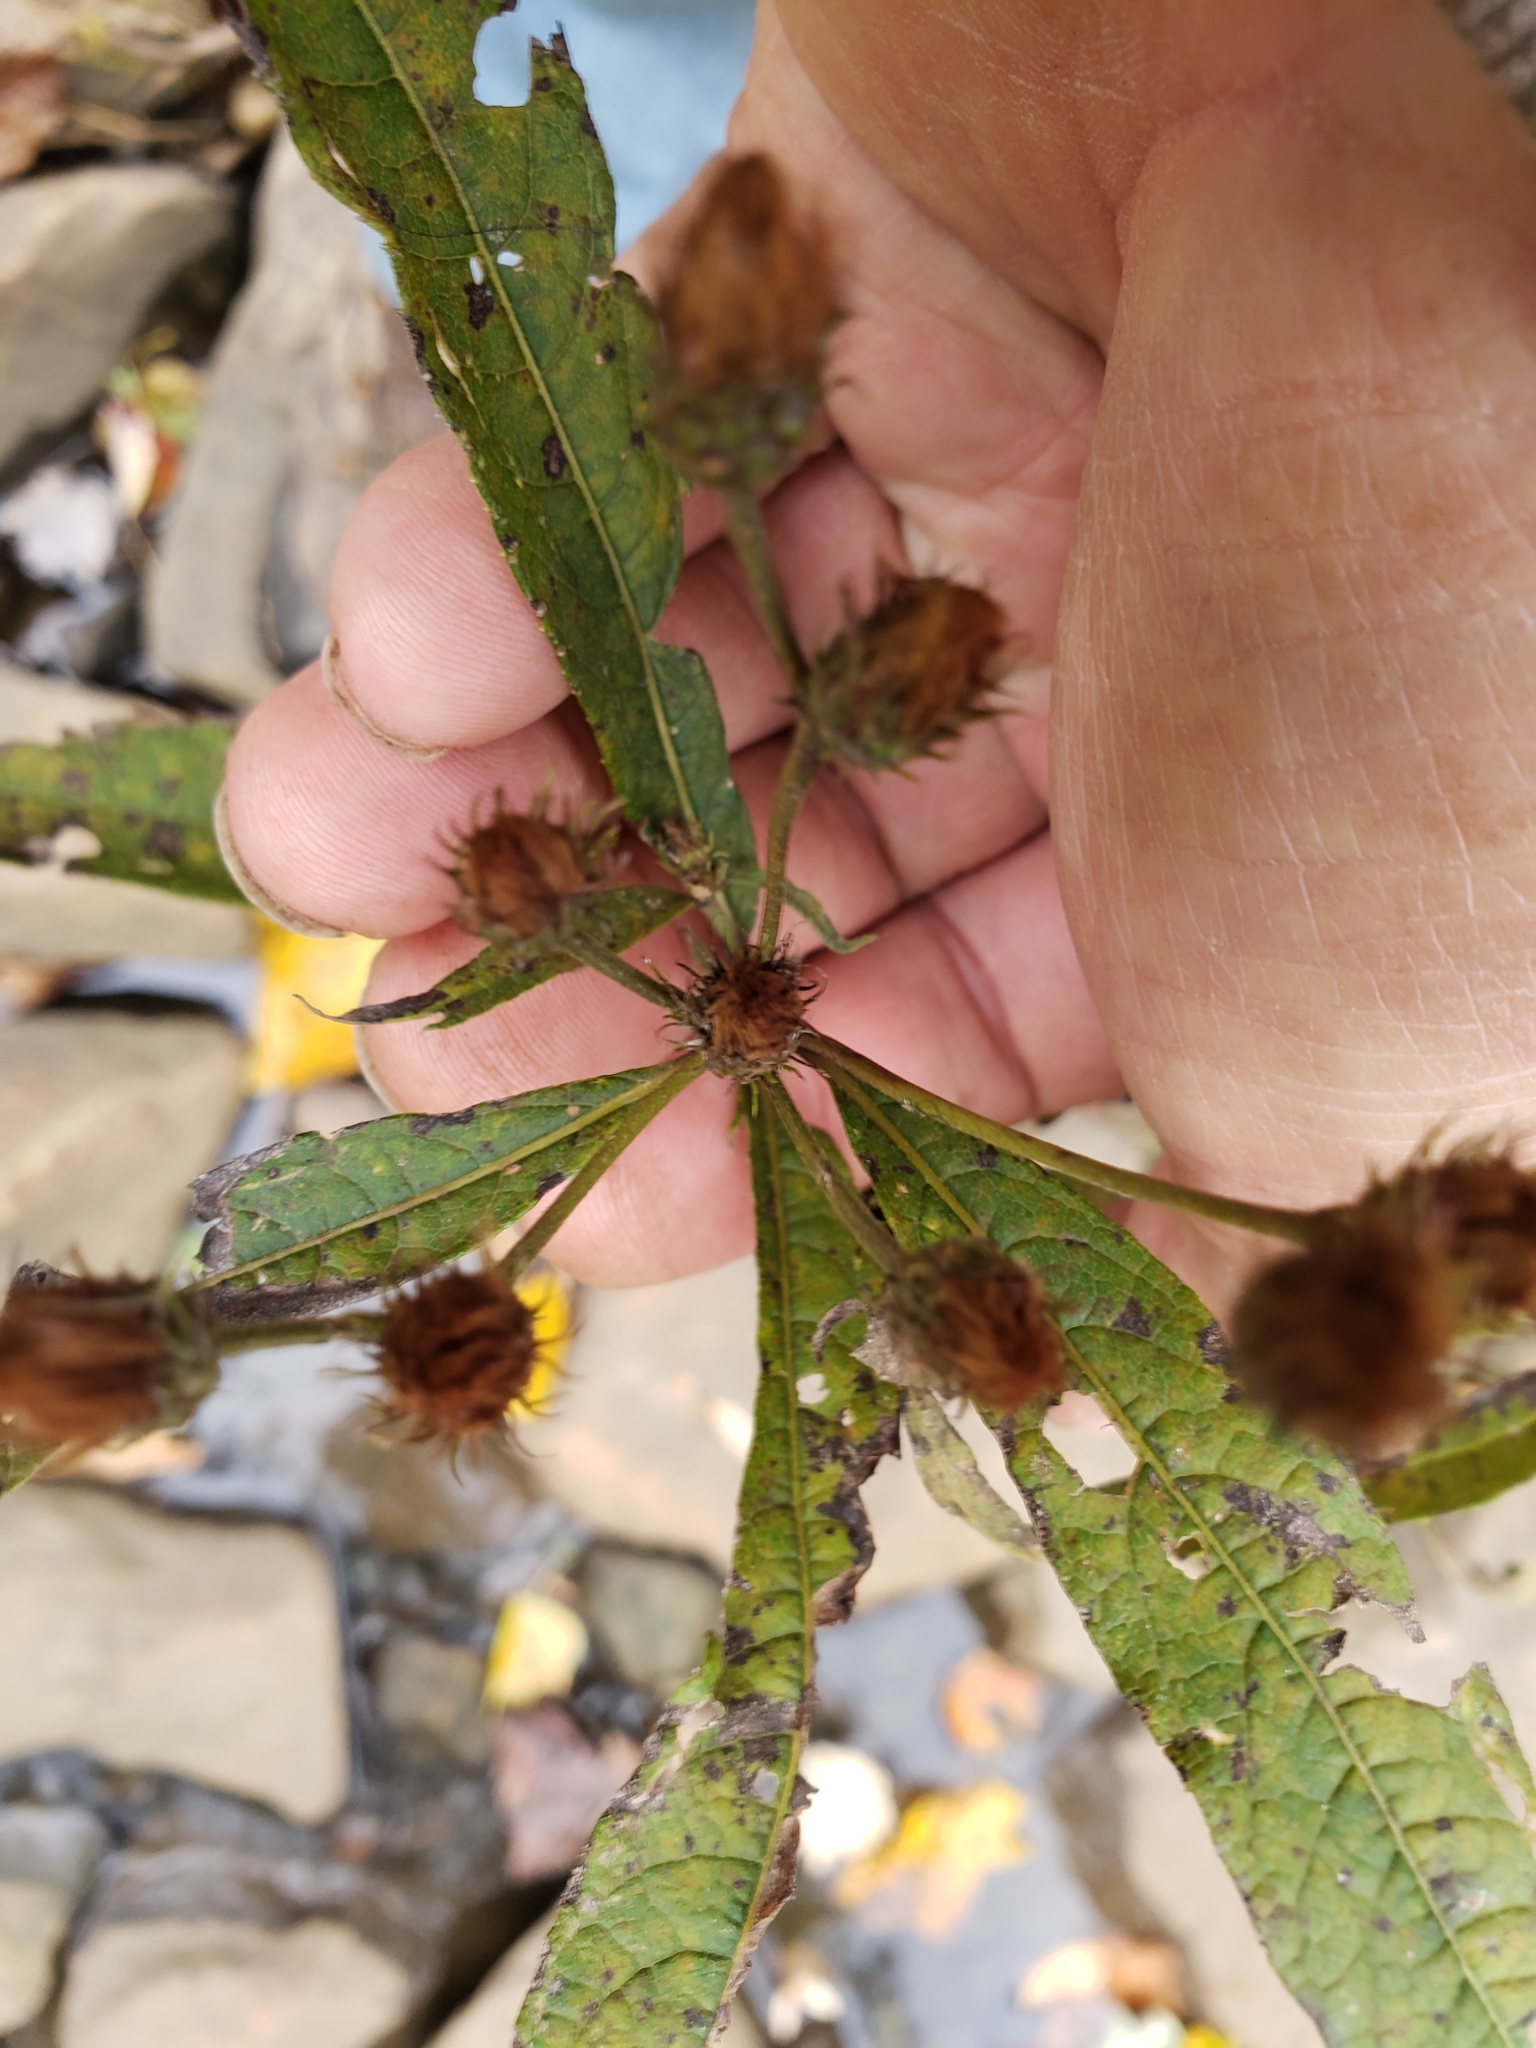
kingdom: Plantae
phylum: Tracheophyta
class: Magnoliopsida
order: Asterales
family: Asteraceae
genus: Vernonia
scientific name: Vernonia noveboracensis
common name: New york ironweed
